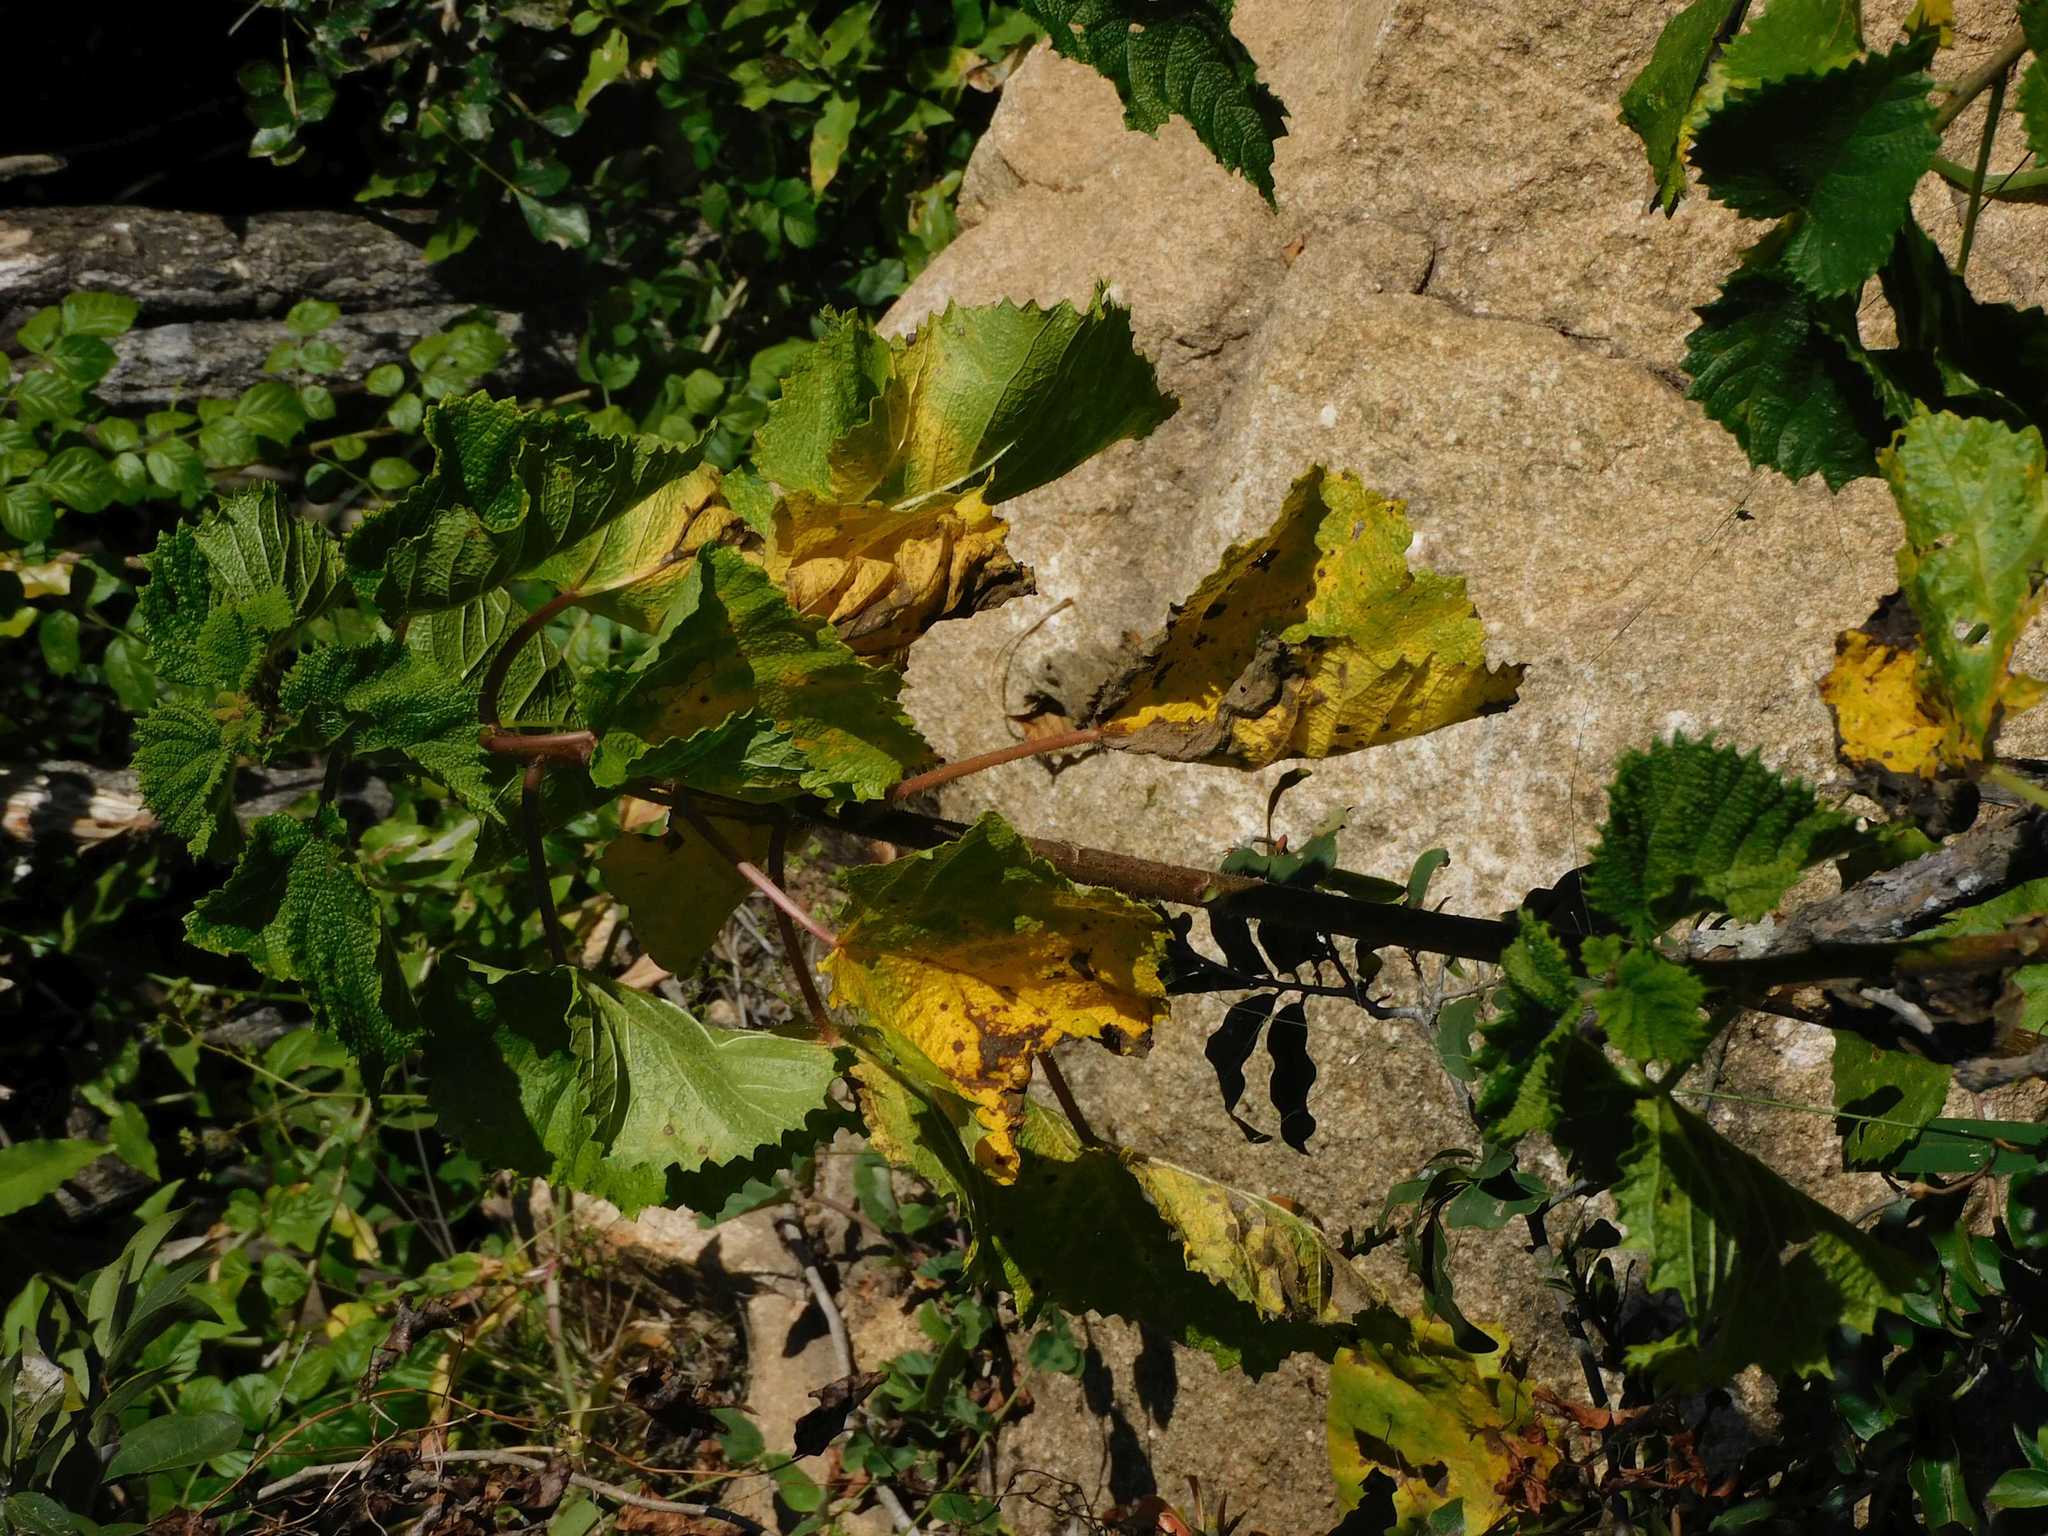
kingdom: Plantae
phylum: Tracheophyta
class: Magnoliopsida
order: Rosales
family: Urticaceae
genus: Obetia
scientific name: Obetia tenax
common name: Rock tree nettle
